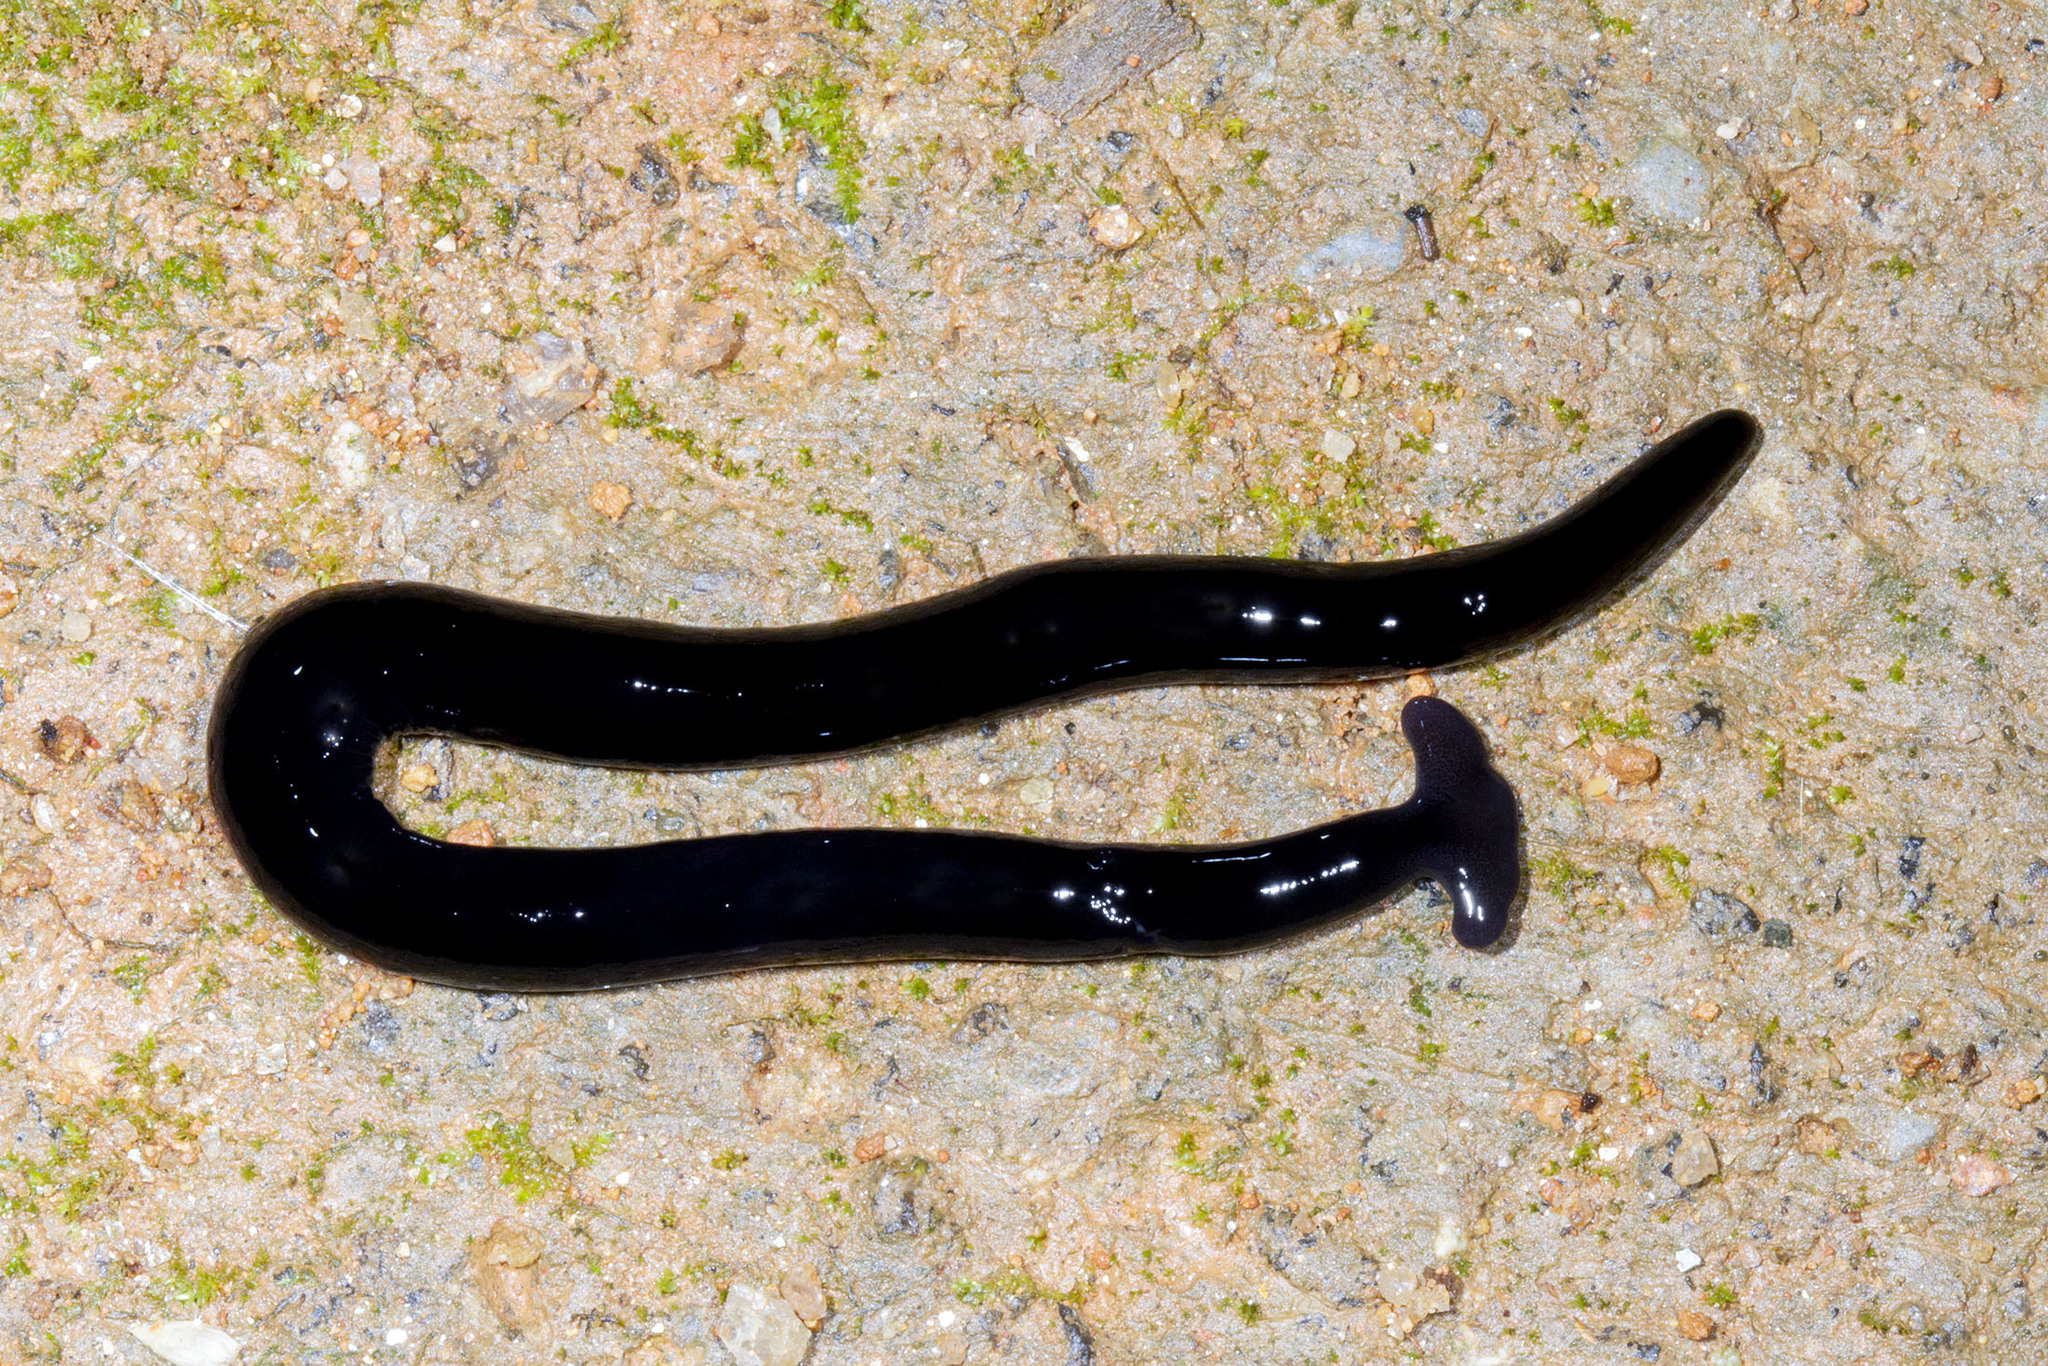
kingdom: Animalia
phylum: Platyhelminthes
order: Tricladida
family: Geoplanidae
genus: Humbertium
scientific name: Humbertium ferrugineoideum
